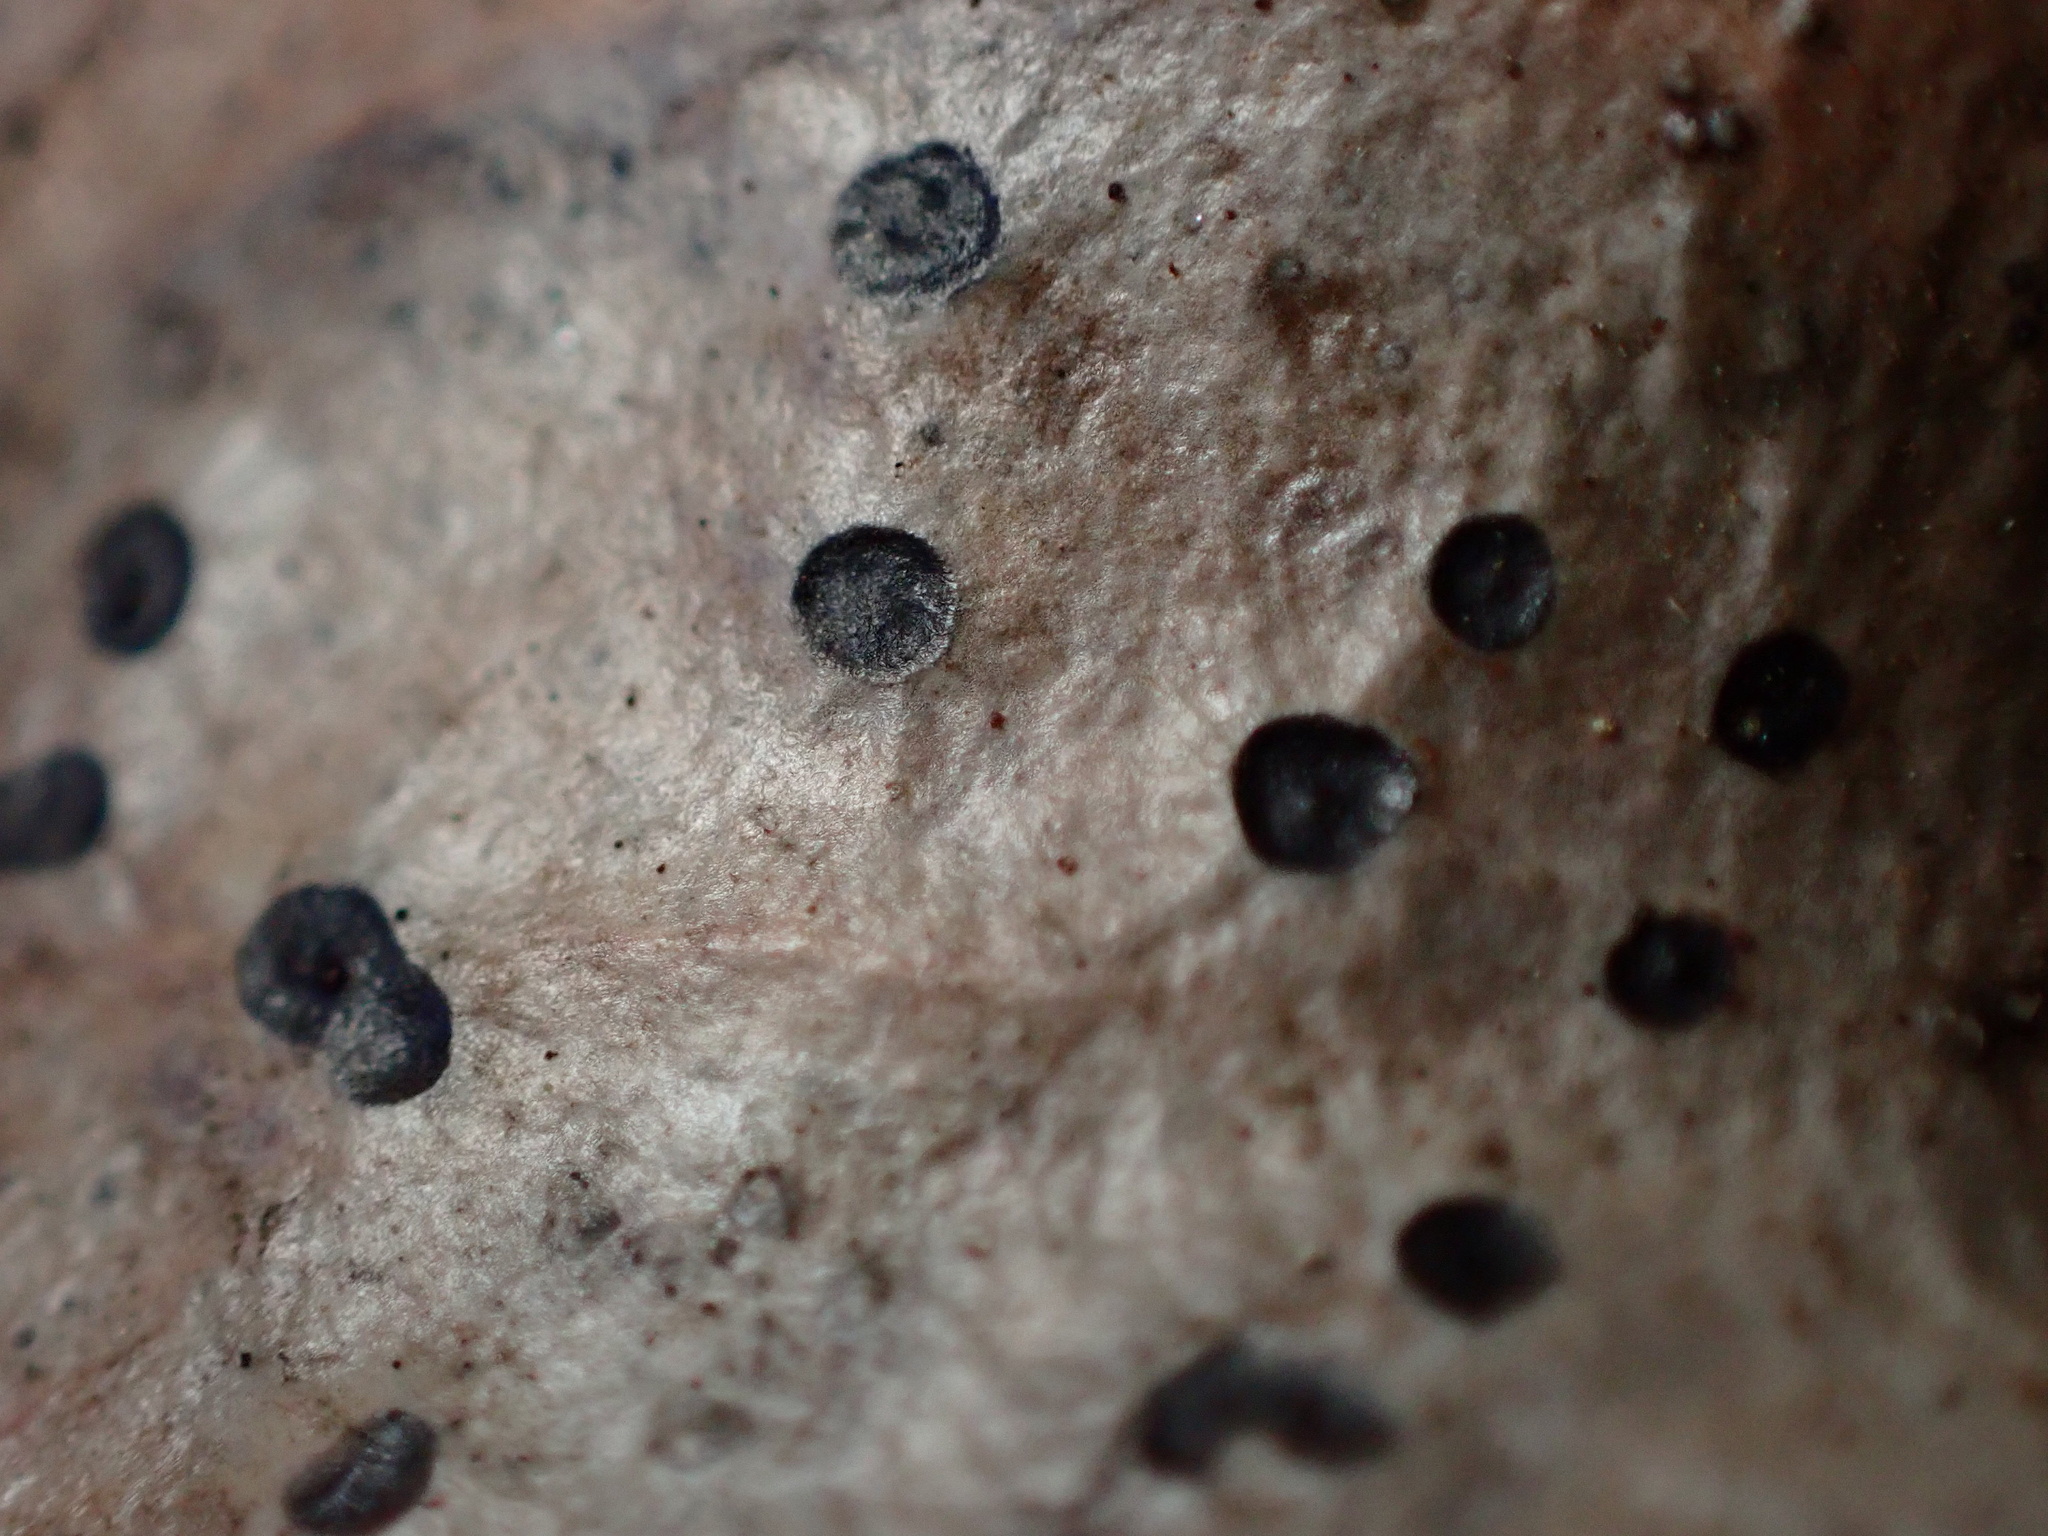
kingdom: Fungi
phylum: Ascomycota
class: Leotiomycetes
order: Helotiales
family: Cenangiaceae
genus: Trochila
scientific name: Trochila ilicina
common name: Holly speckle
